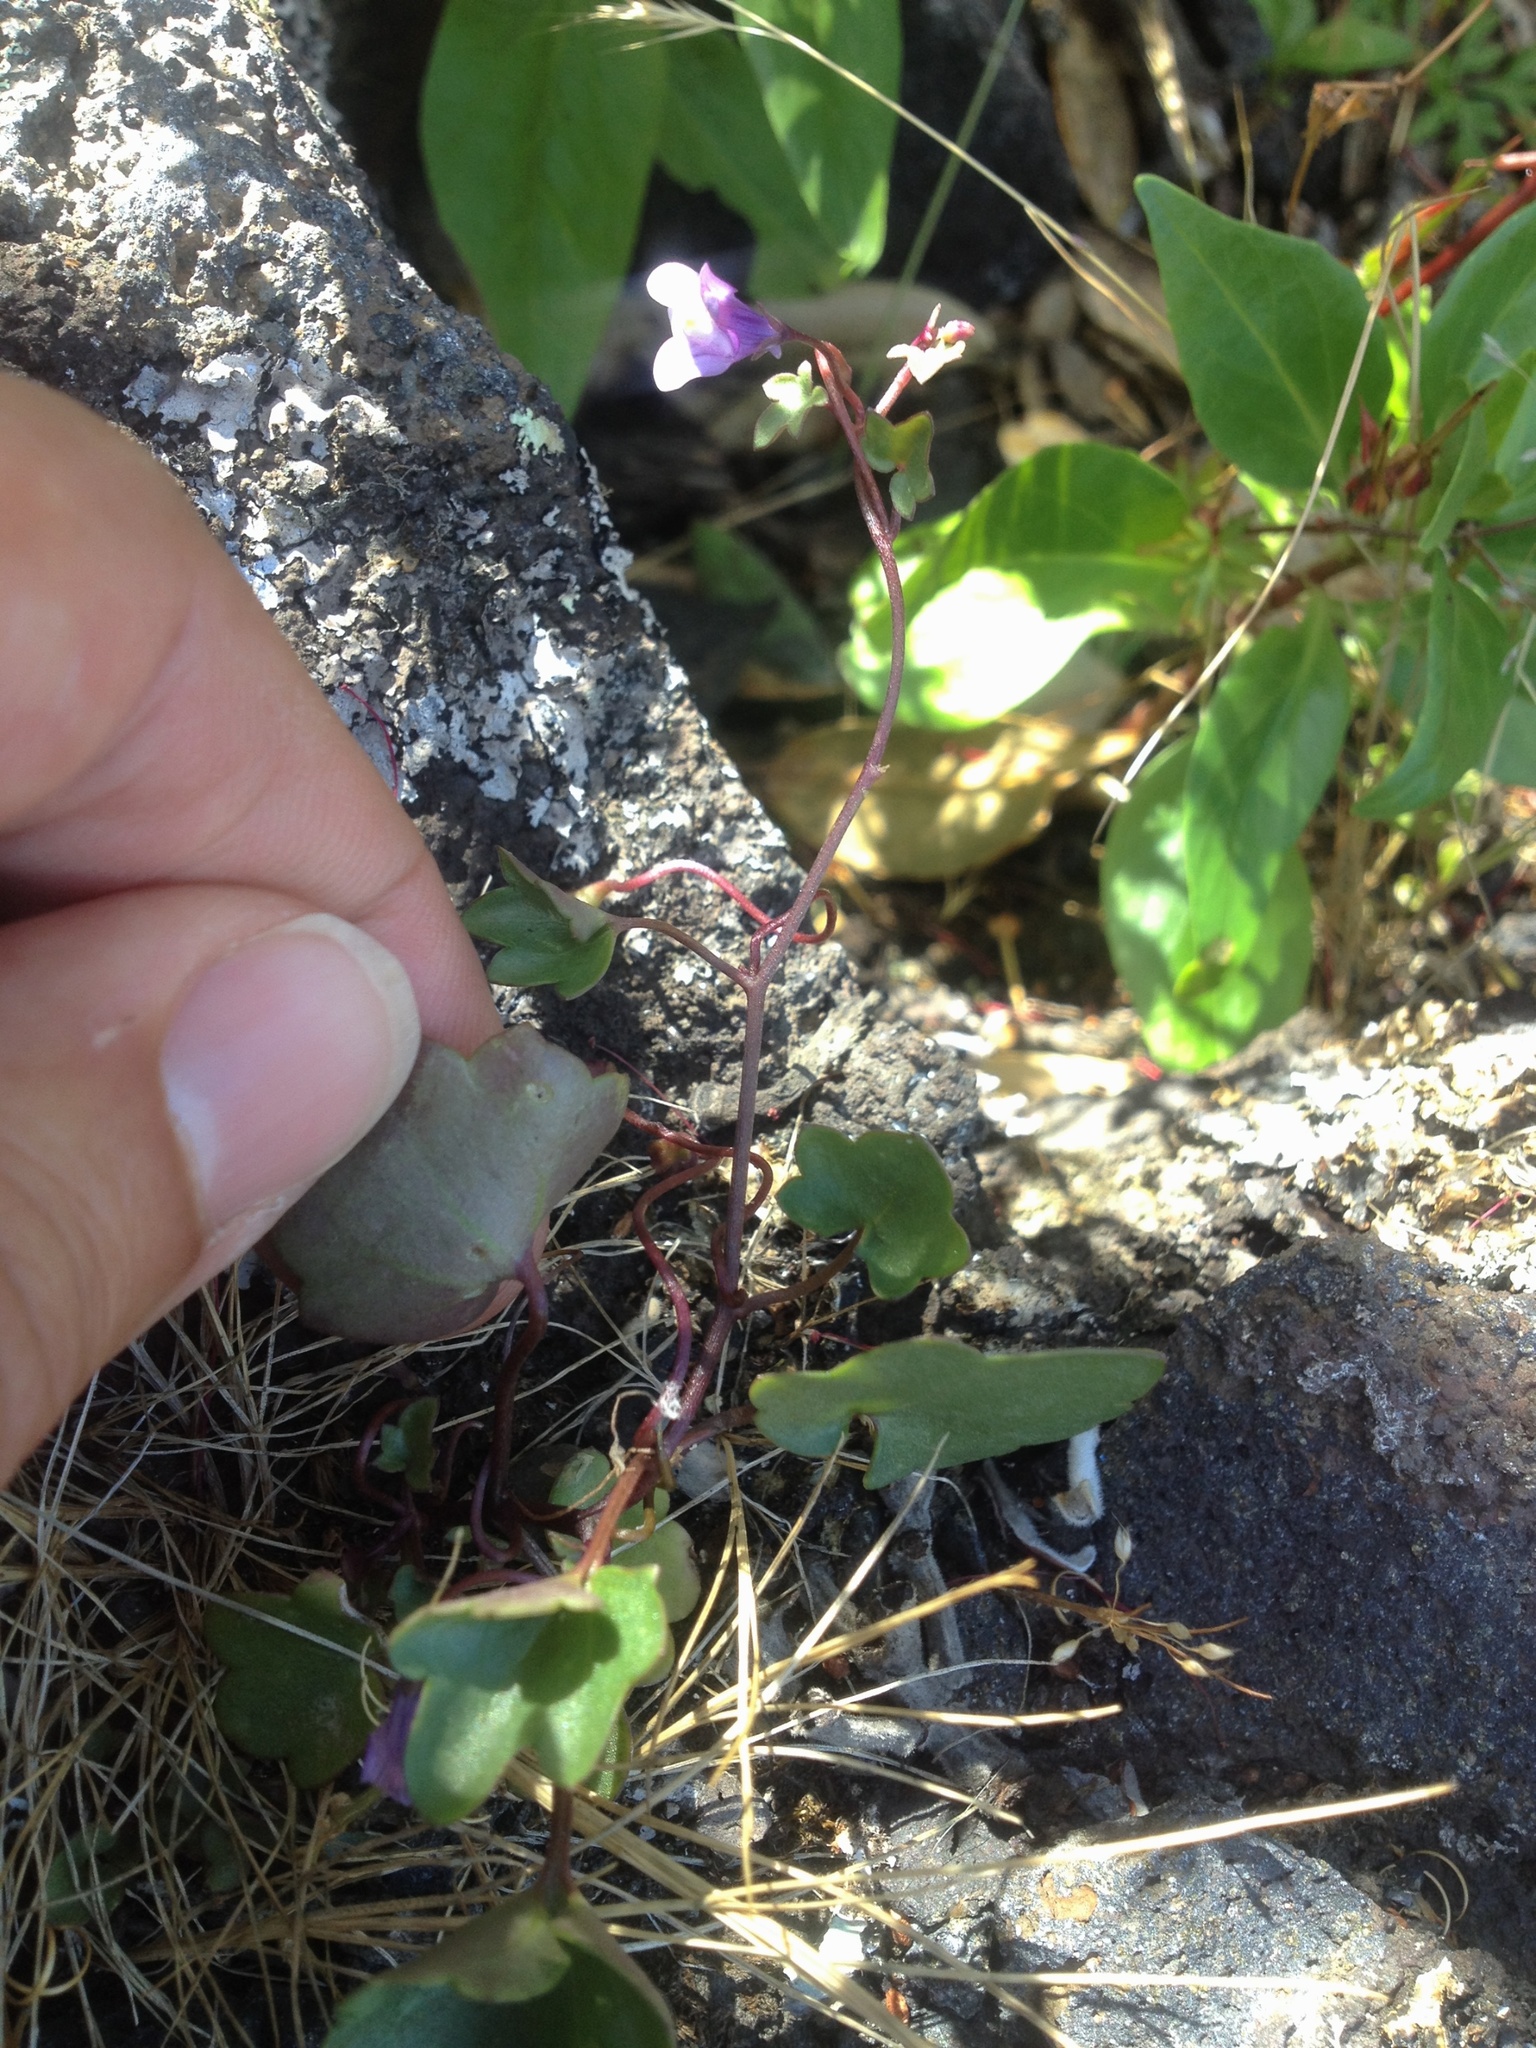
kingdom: Plantae
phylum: Tracheophyta
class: Magnoliopsida
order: Lamiales
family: Plantaginaceae
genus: Cymbalaria
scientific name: Cymbalaria muralis
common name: Ivy-leaved toadflax
